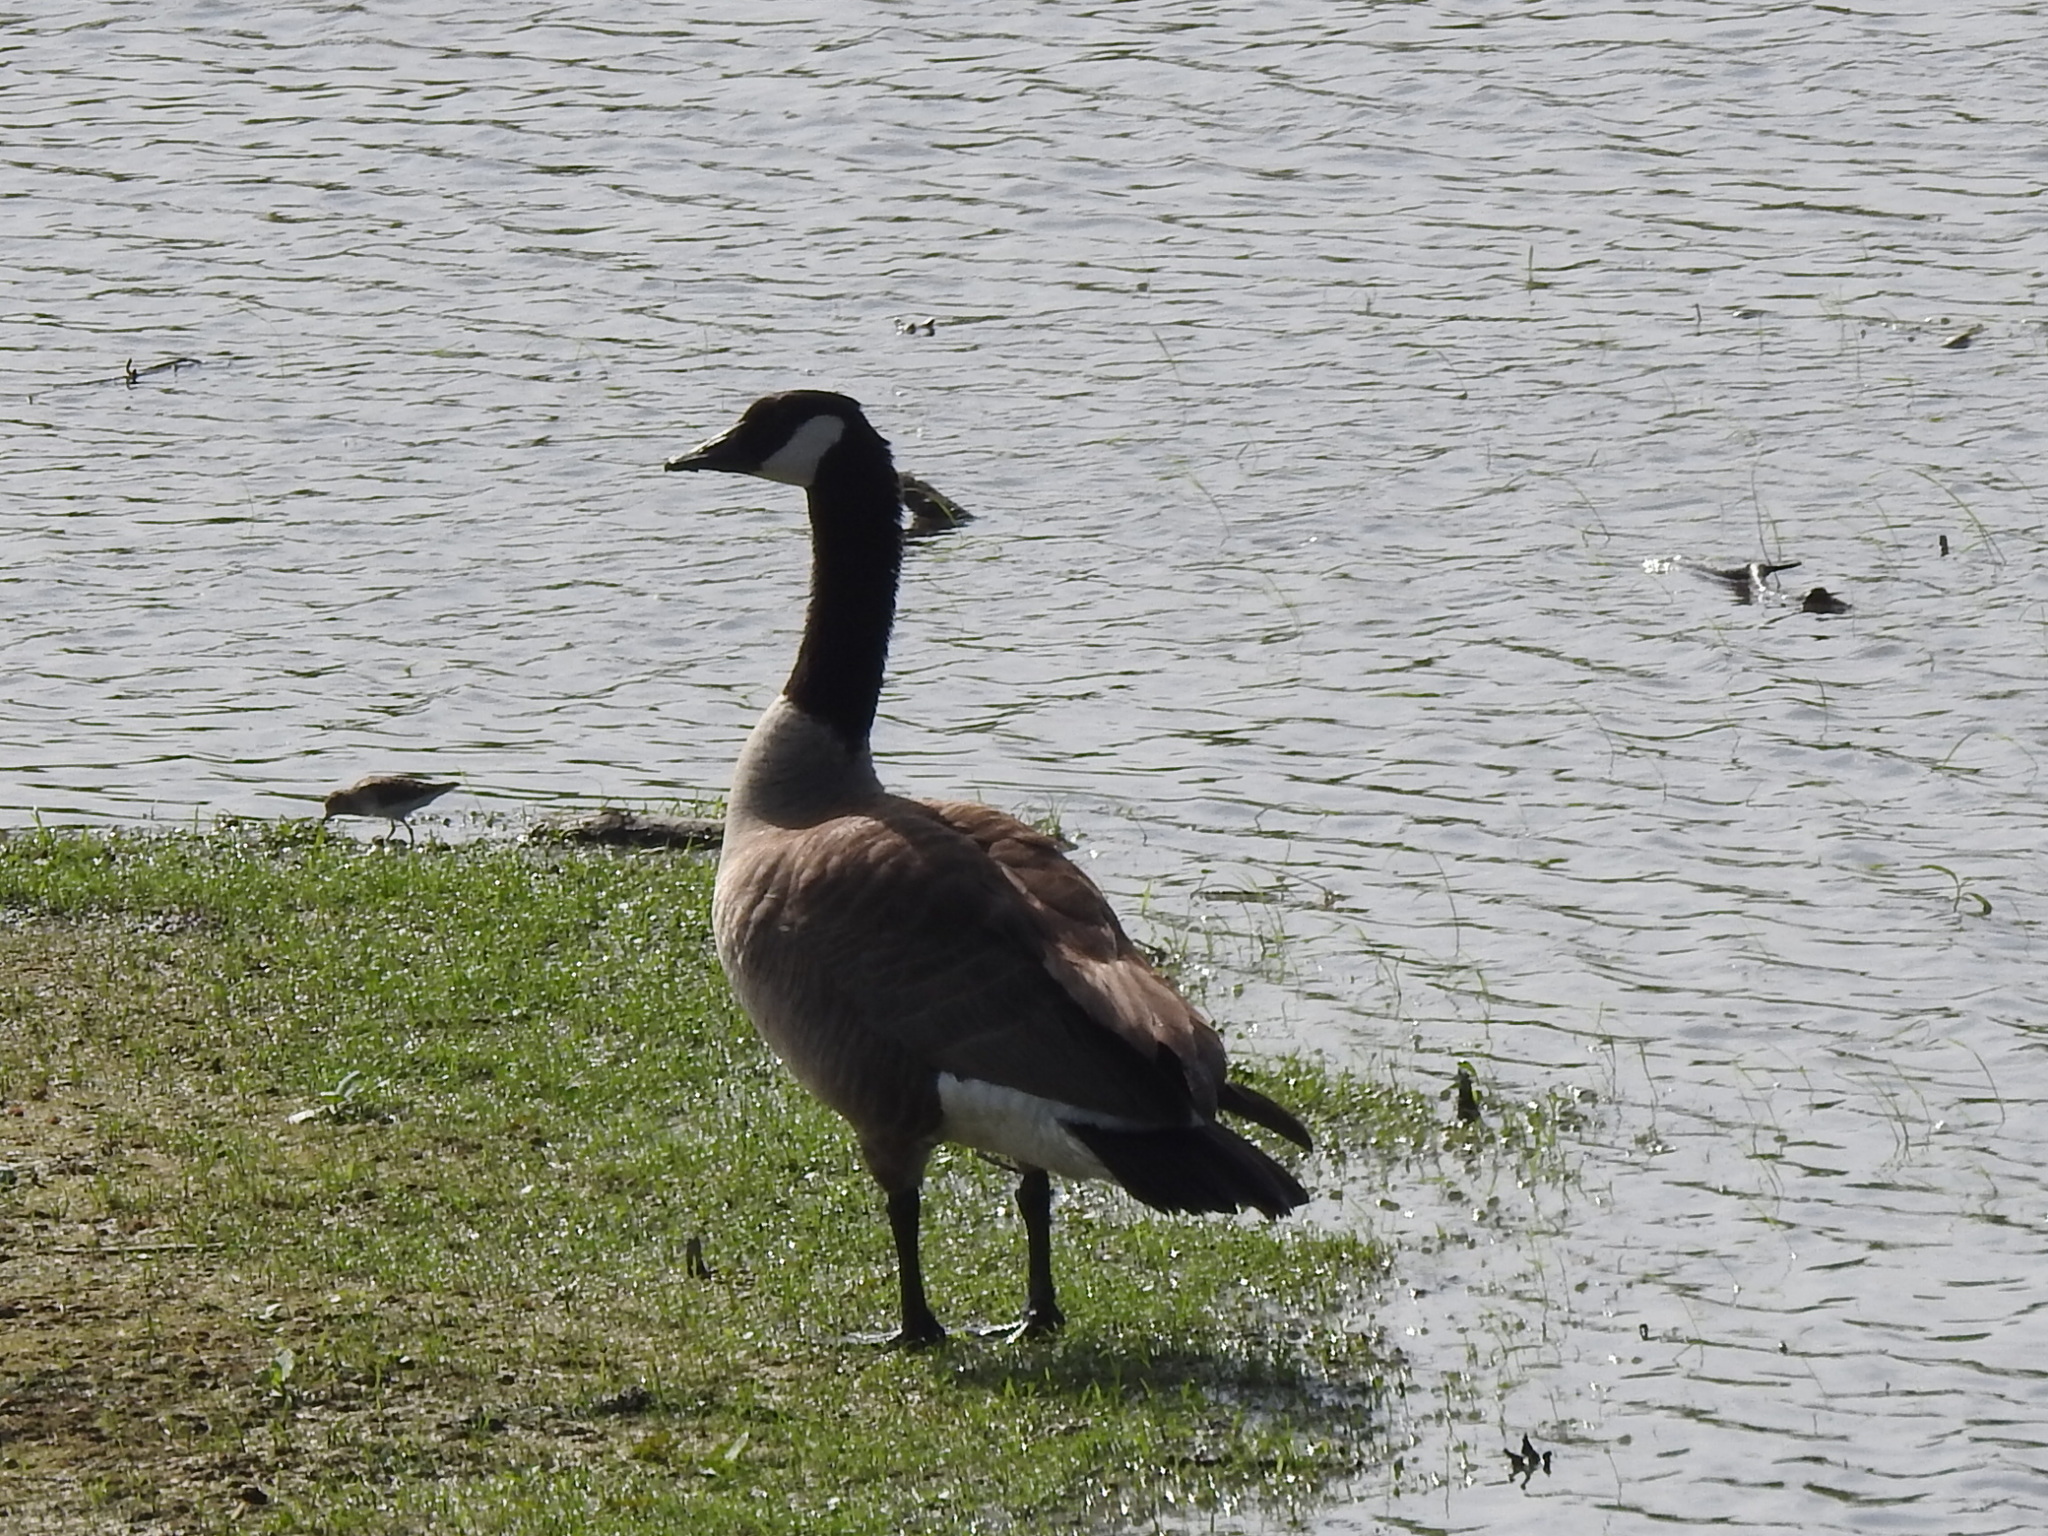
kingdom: Animalia
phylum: Chordata
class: Aves
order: Anseriformes
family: Anatidae
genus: Branta
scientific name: Branta canadensis
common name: Canada goose
